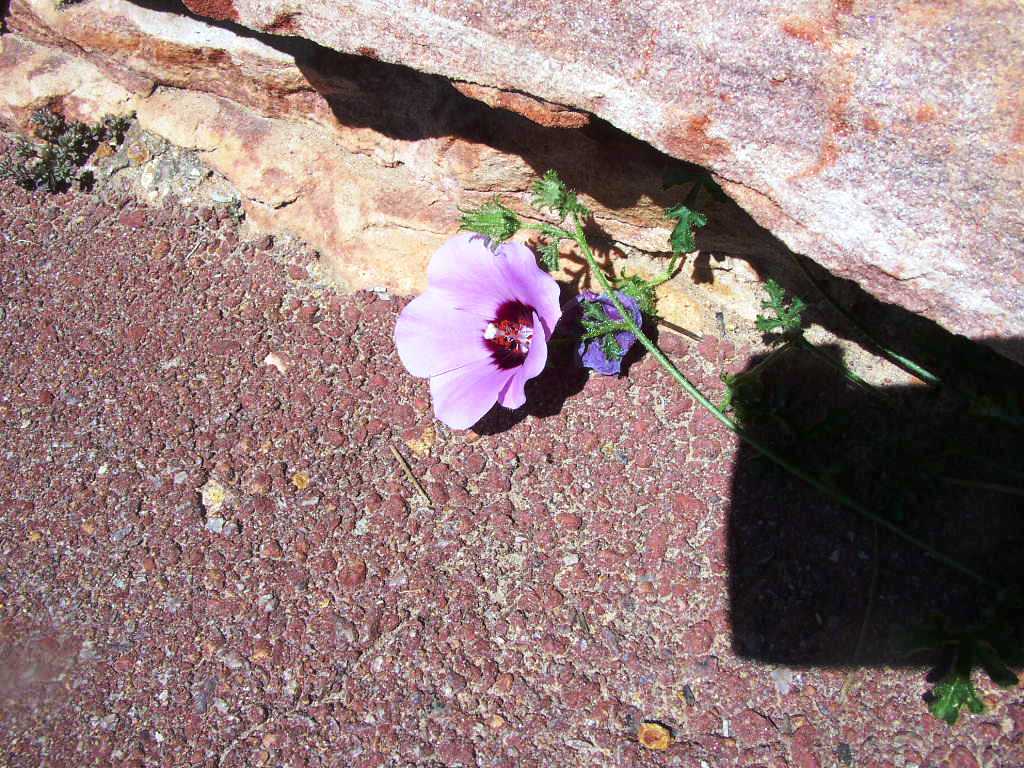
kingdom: Plantae
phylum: Tracheophyta
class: Magnoliopsida
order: Malvales
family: Malvaceae
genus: Hibiscus
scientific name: Hibiscus drummondii
